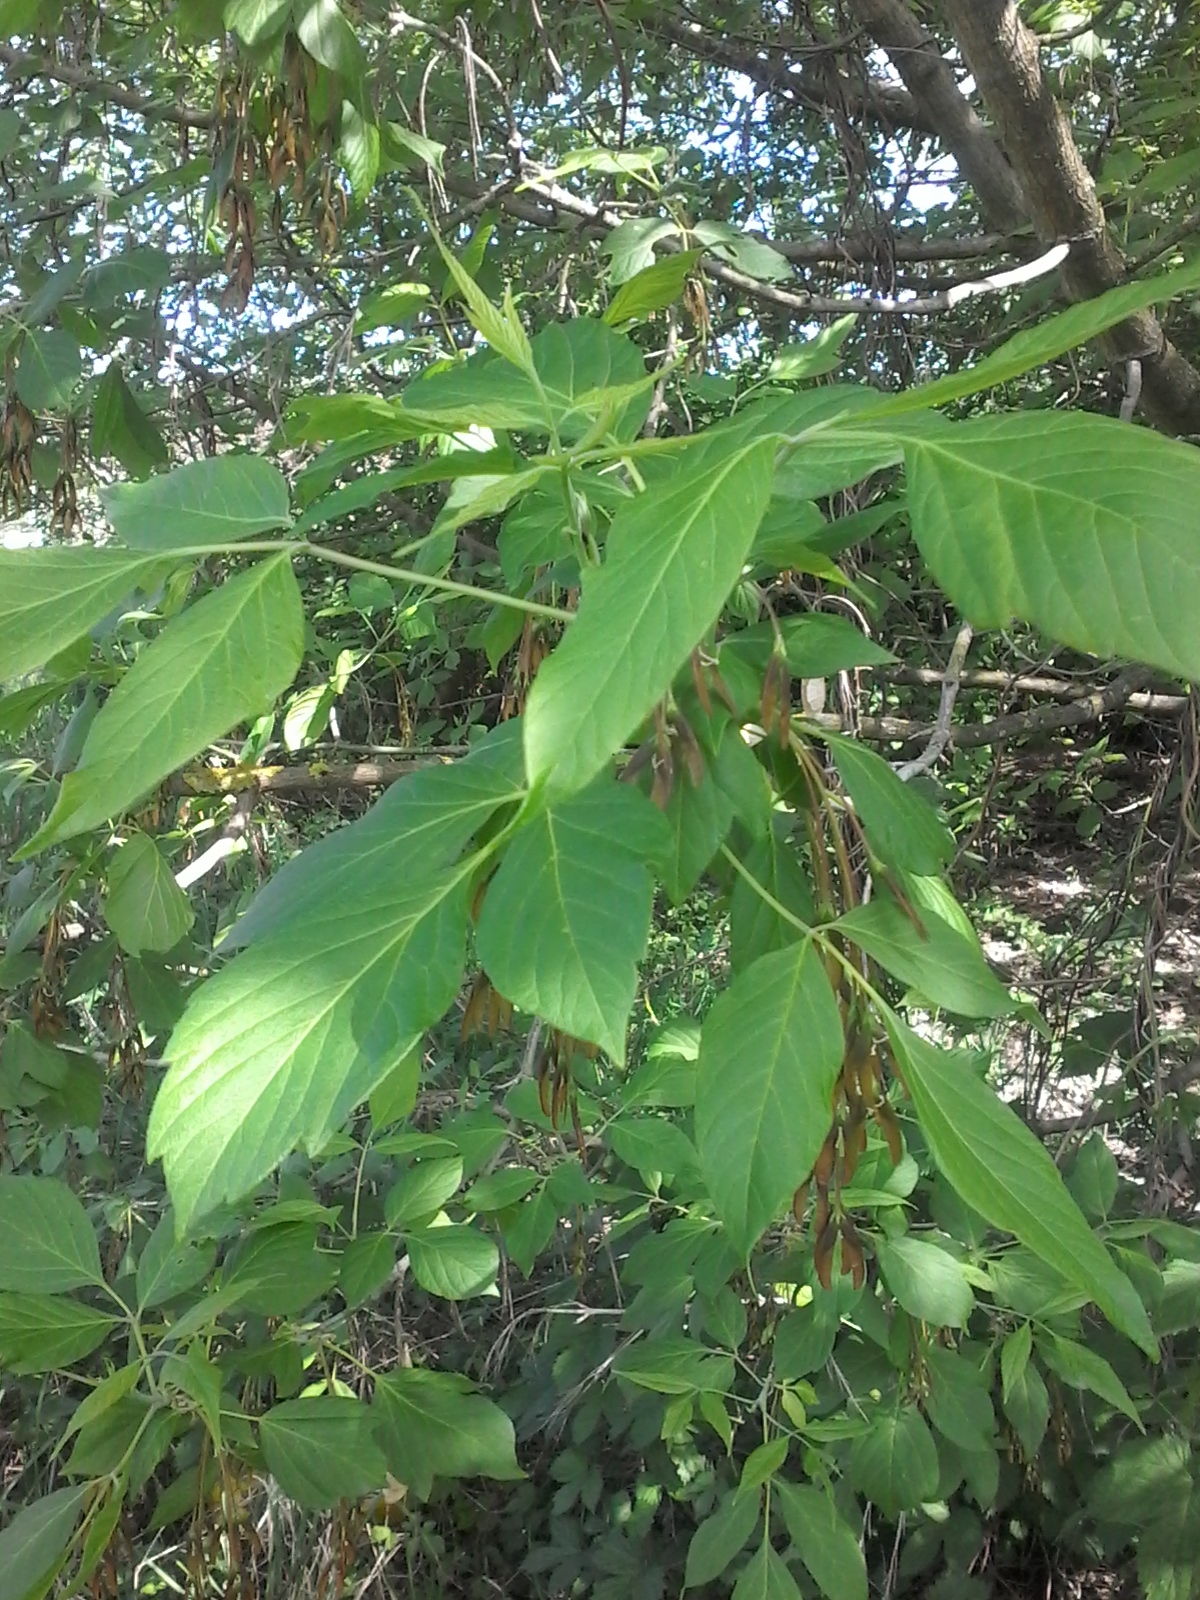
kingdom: Plantae
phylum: Tracheophyta
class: Magnoliopsida
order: Sapindales
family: Sapindaceae
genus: Acer
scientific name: Acer negundo
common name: Ashleaf maple
